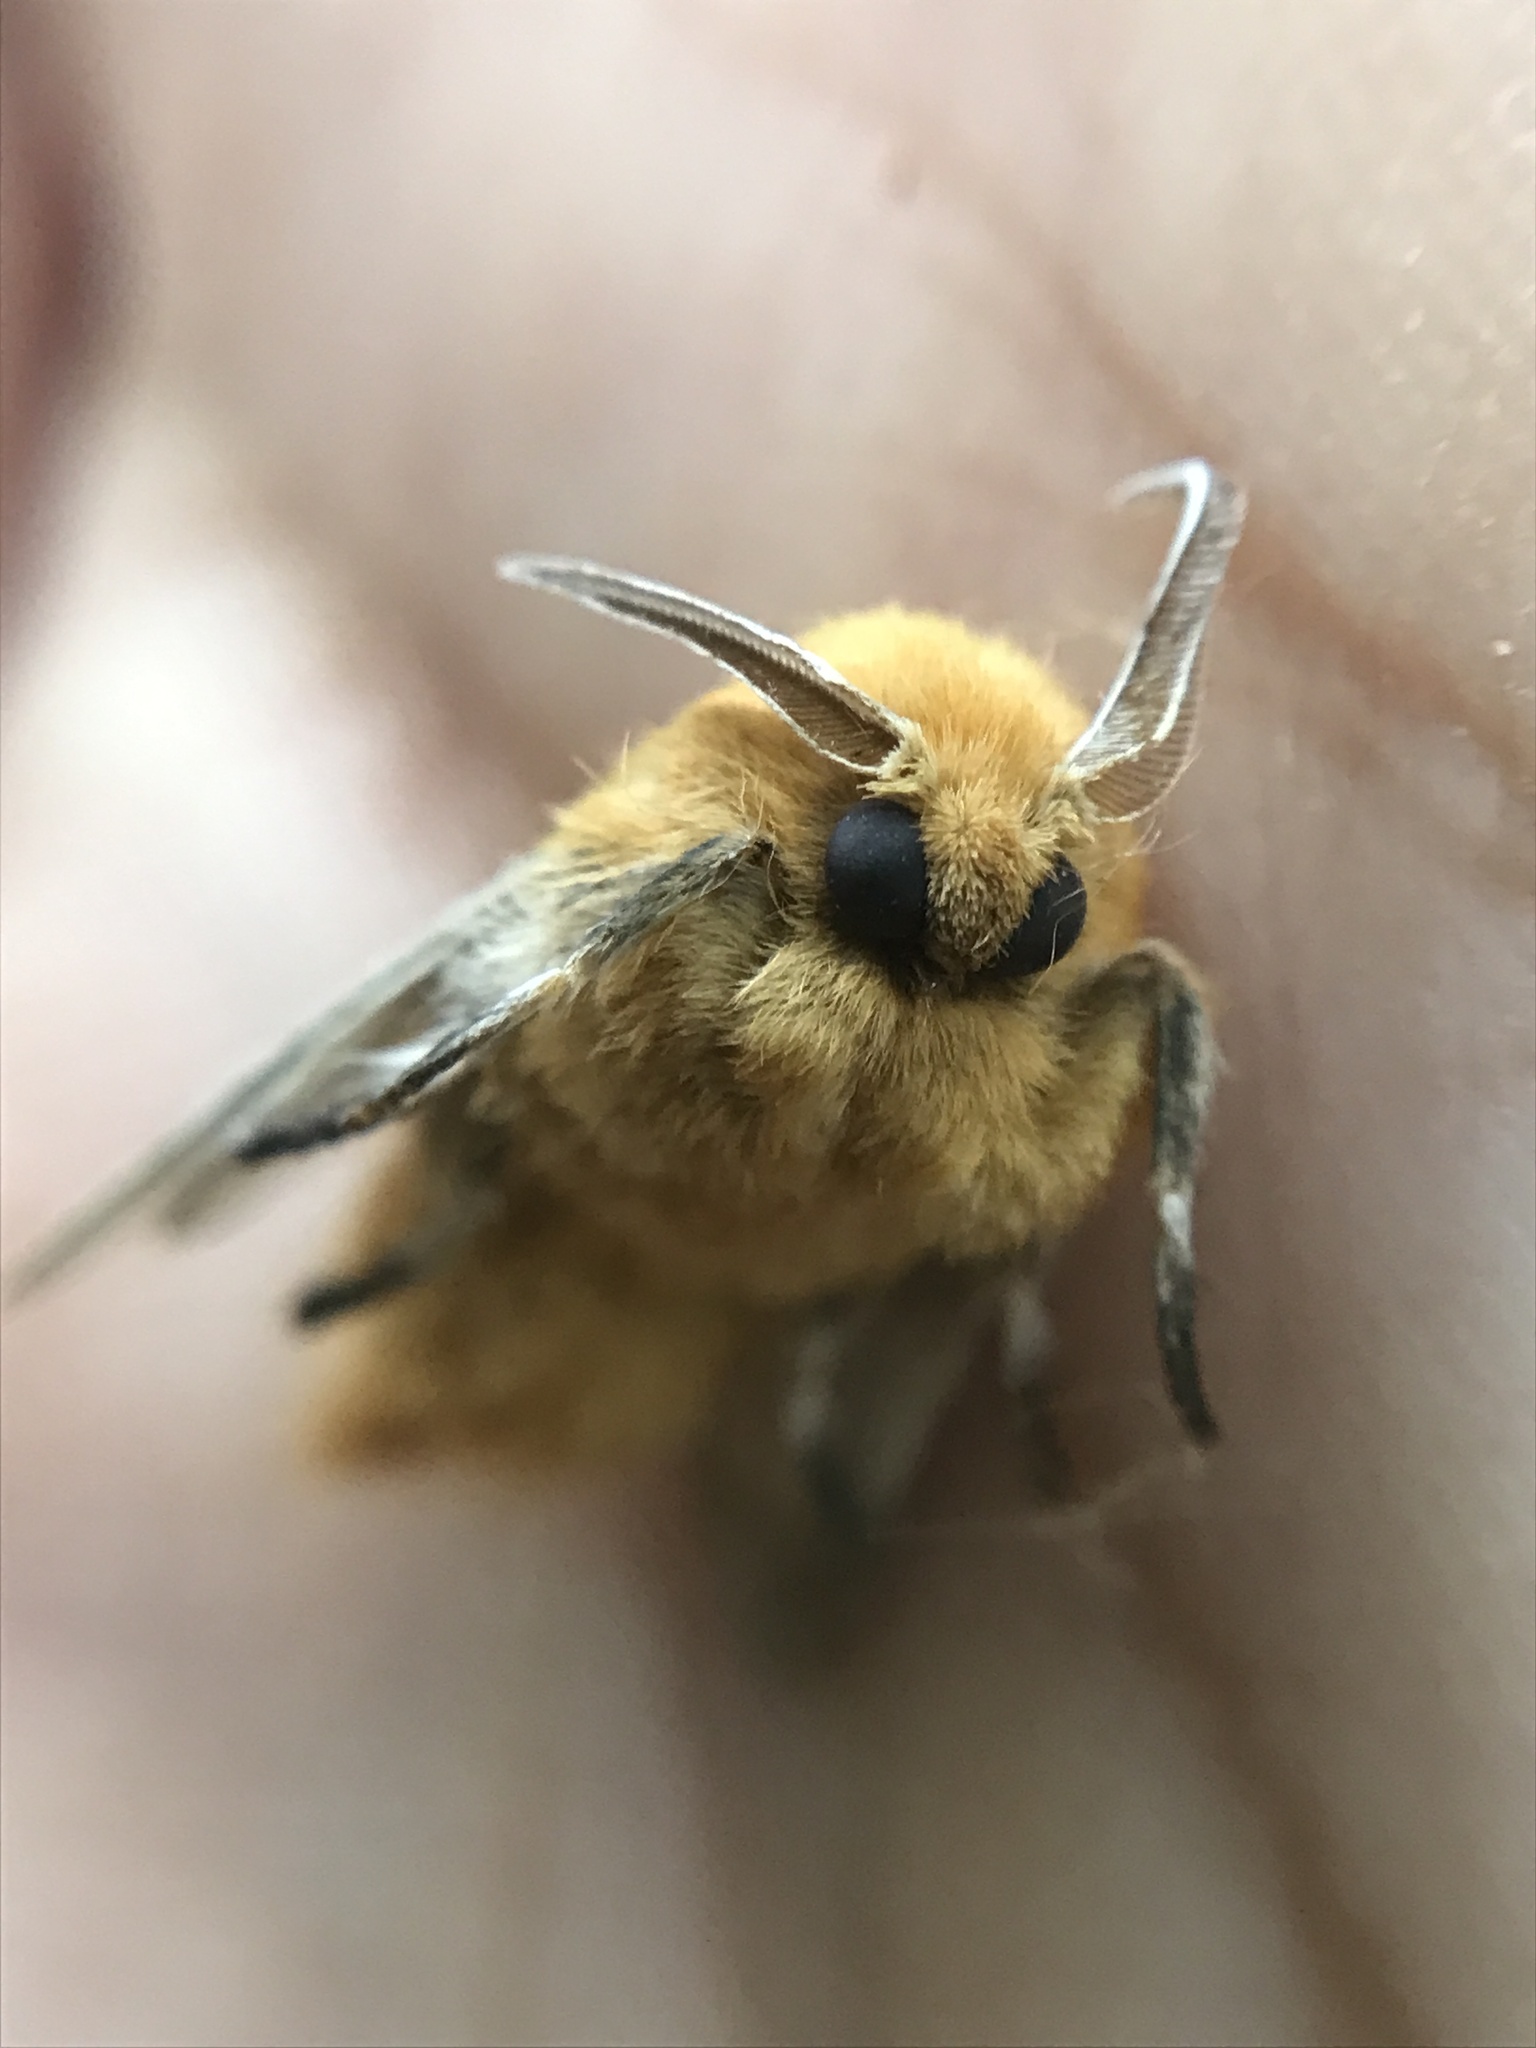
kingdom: Animalia
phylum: Arthropoda
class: Insecta
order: Lepidoptera
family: Megalopygidae
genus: Megalopyge
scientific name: Megalopyge undulata
